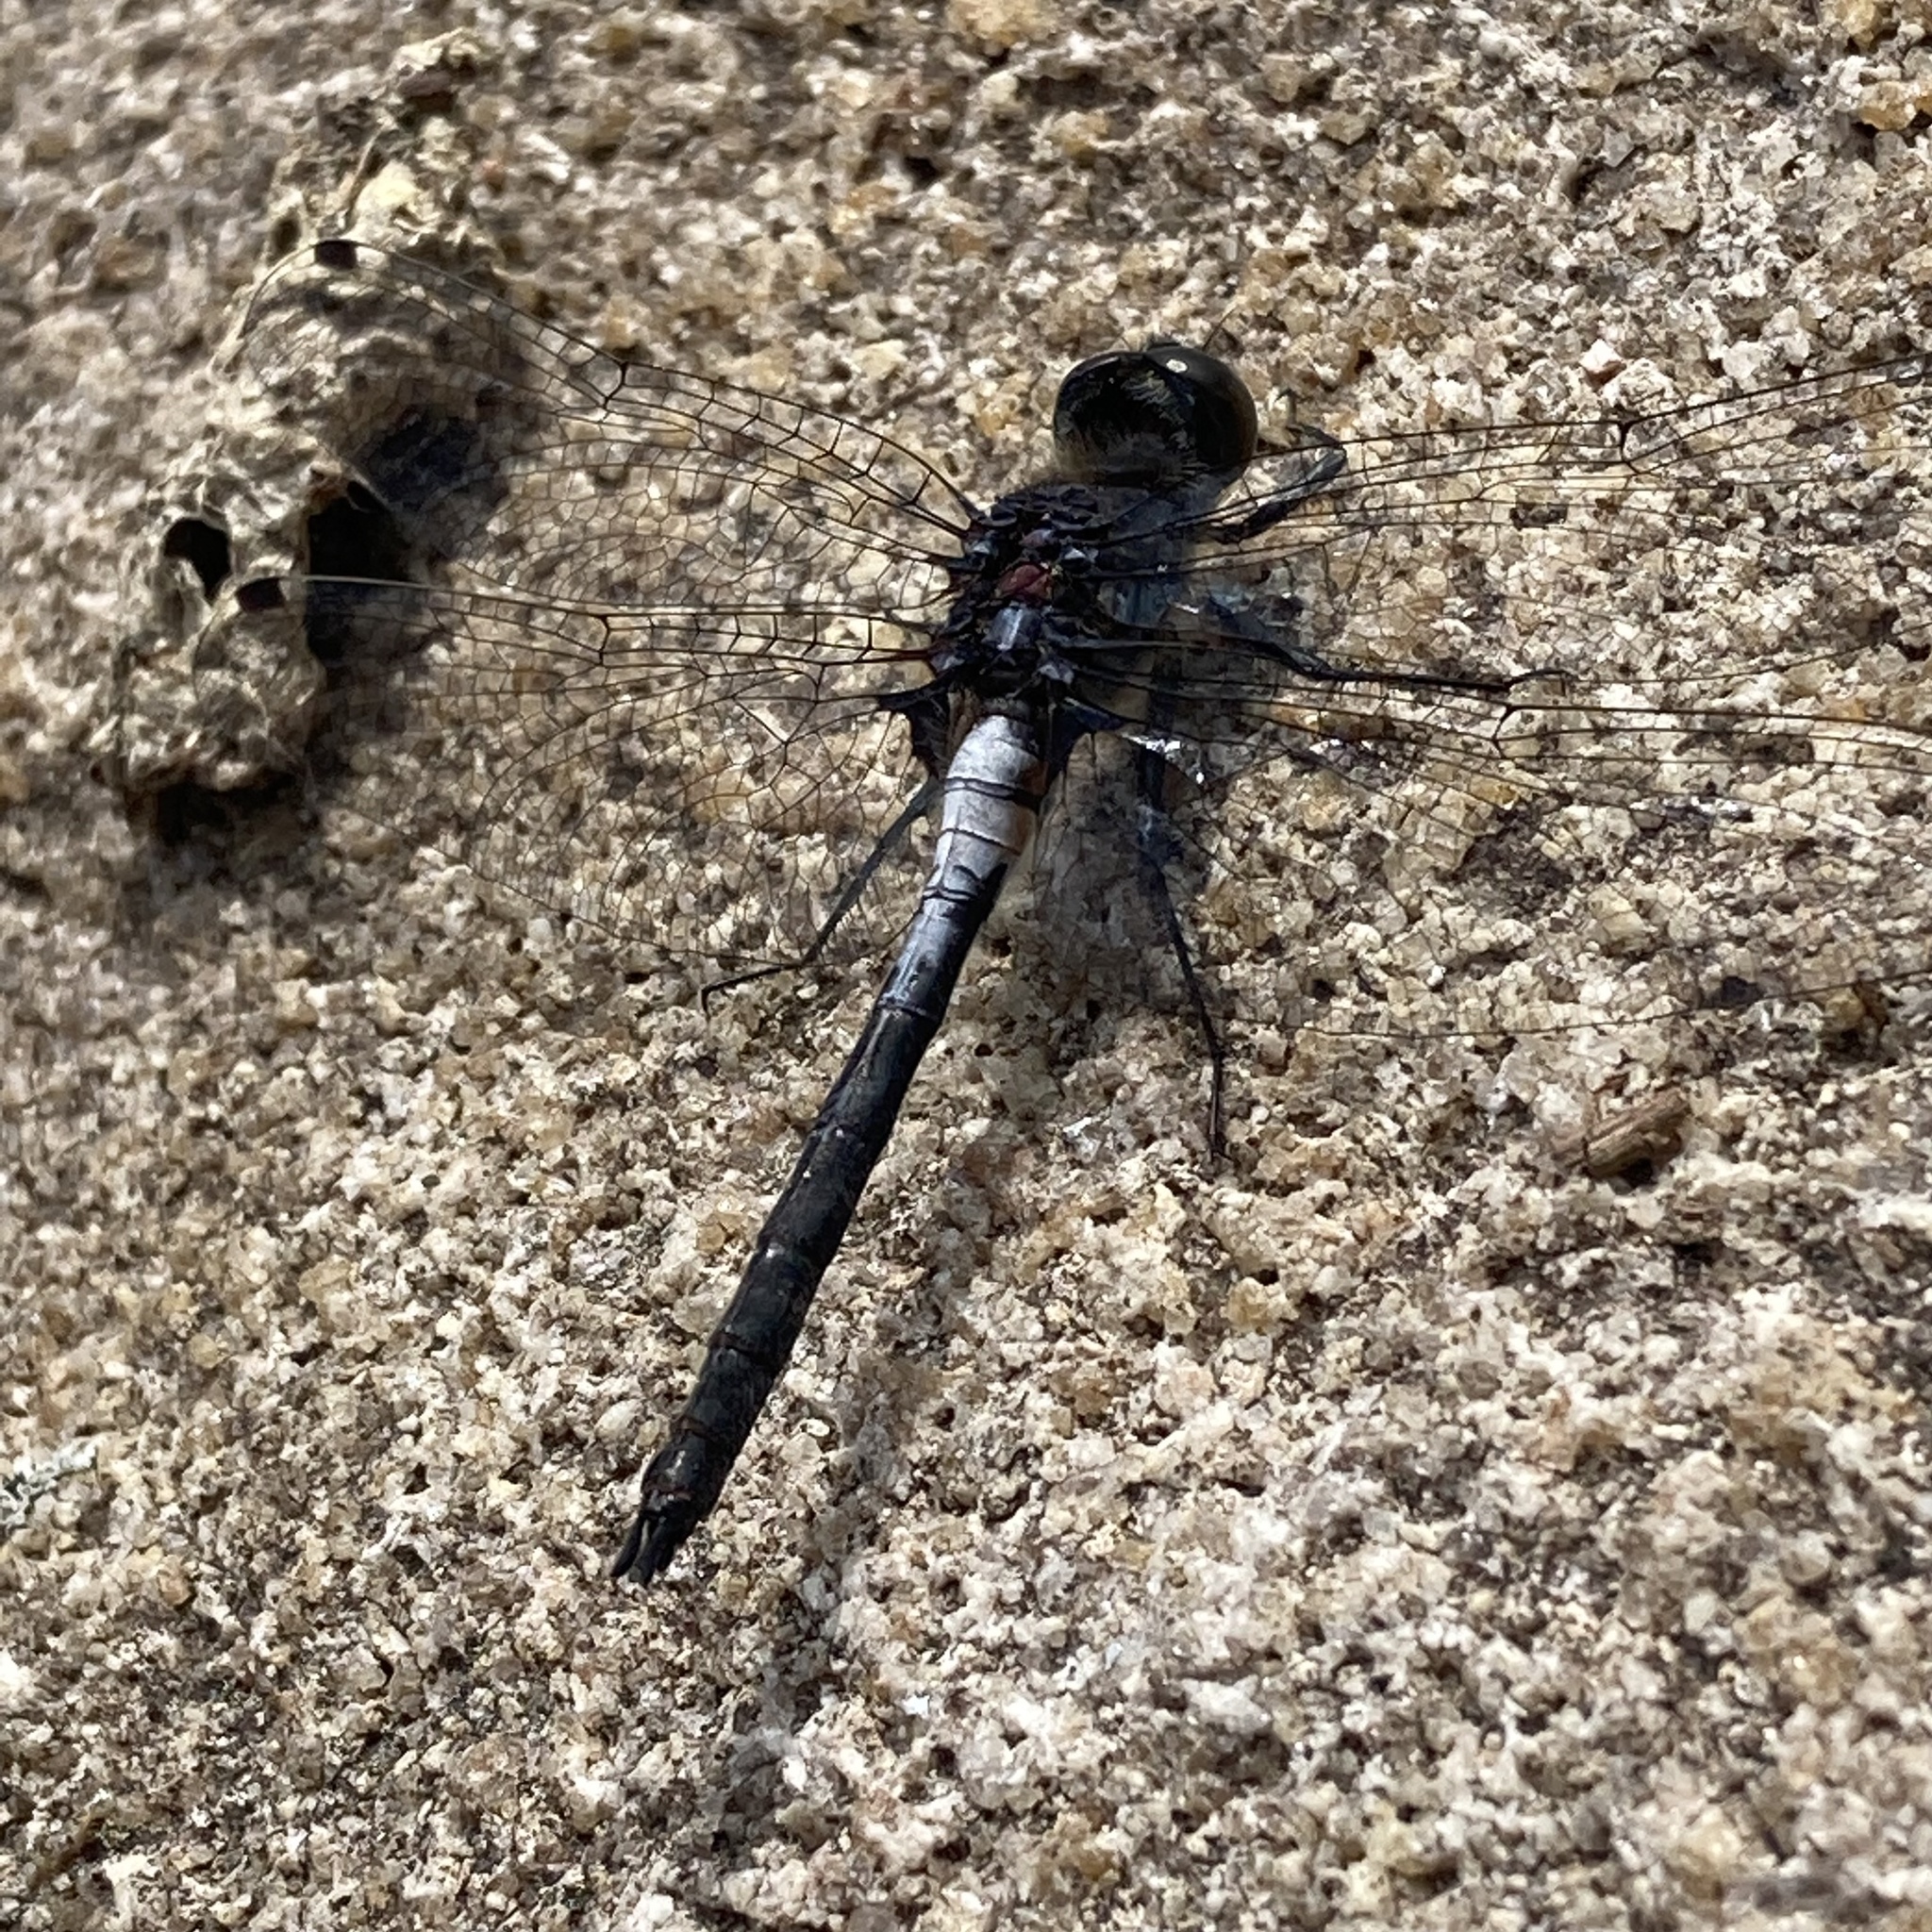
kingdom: Animalia
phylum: Arthropoda
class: Insecta
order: Odonata
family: Libellulidae
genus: Leucorrhinia
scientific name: Leucorrhinia proxima
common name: Belted whiteface
